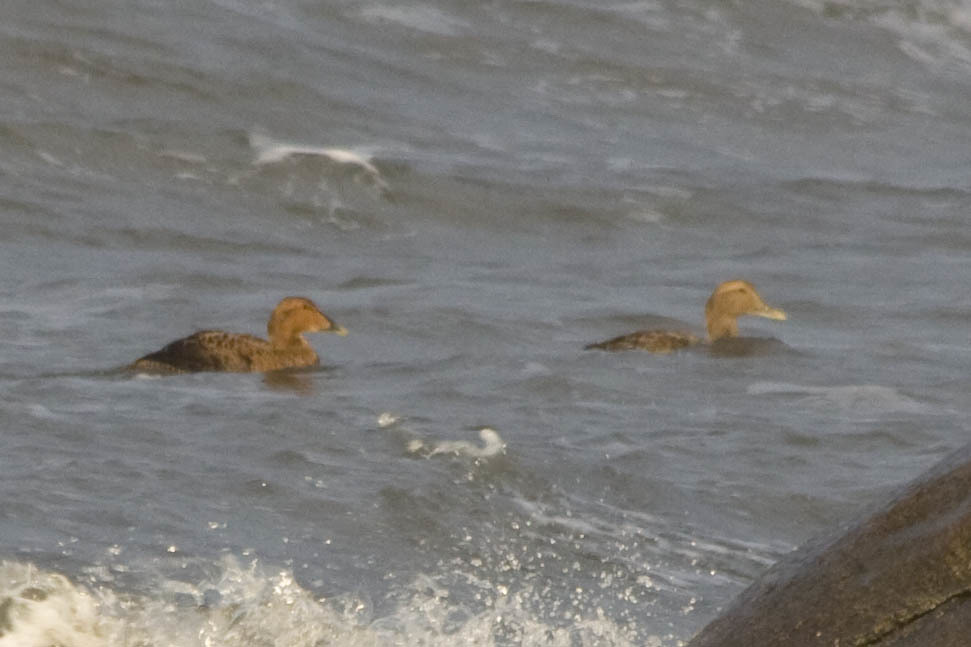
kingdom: Animalia
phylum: Chordata
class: Aves
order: Anseriformes
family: Anatidae
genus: Somateria
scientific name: Somateria mollissima
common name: Common eider
